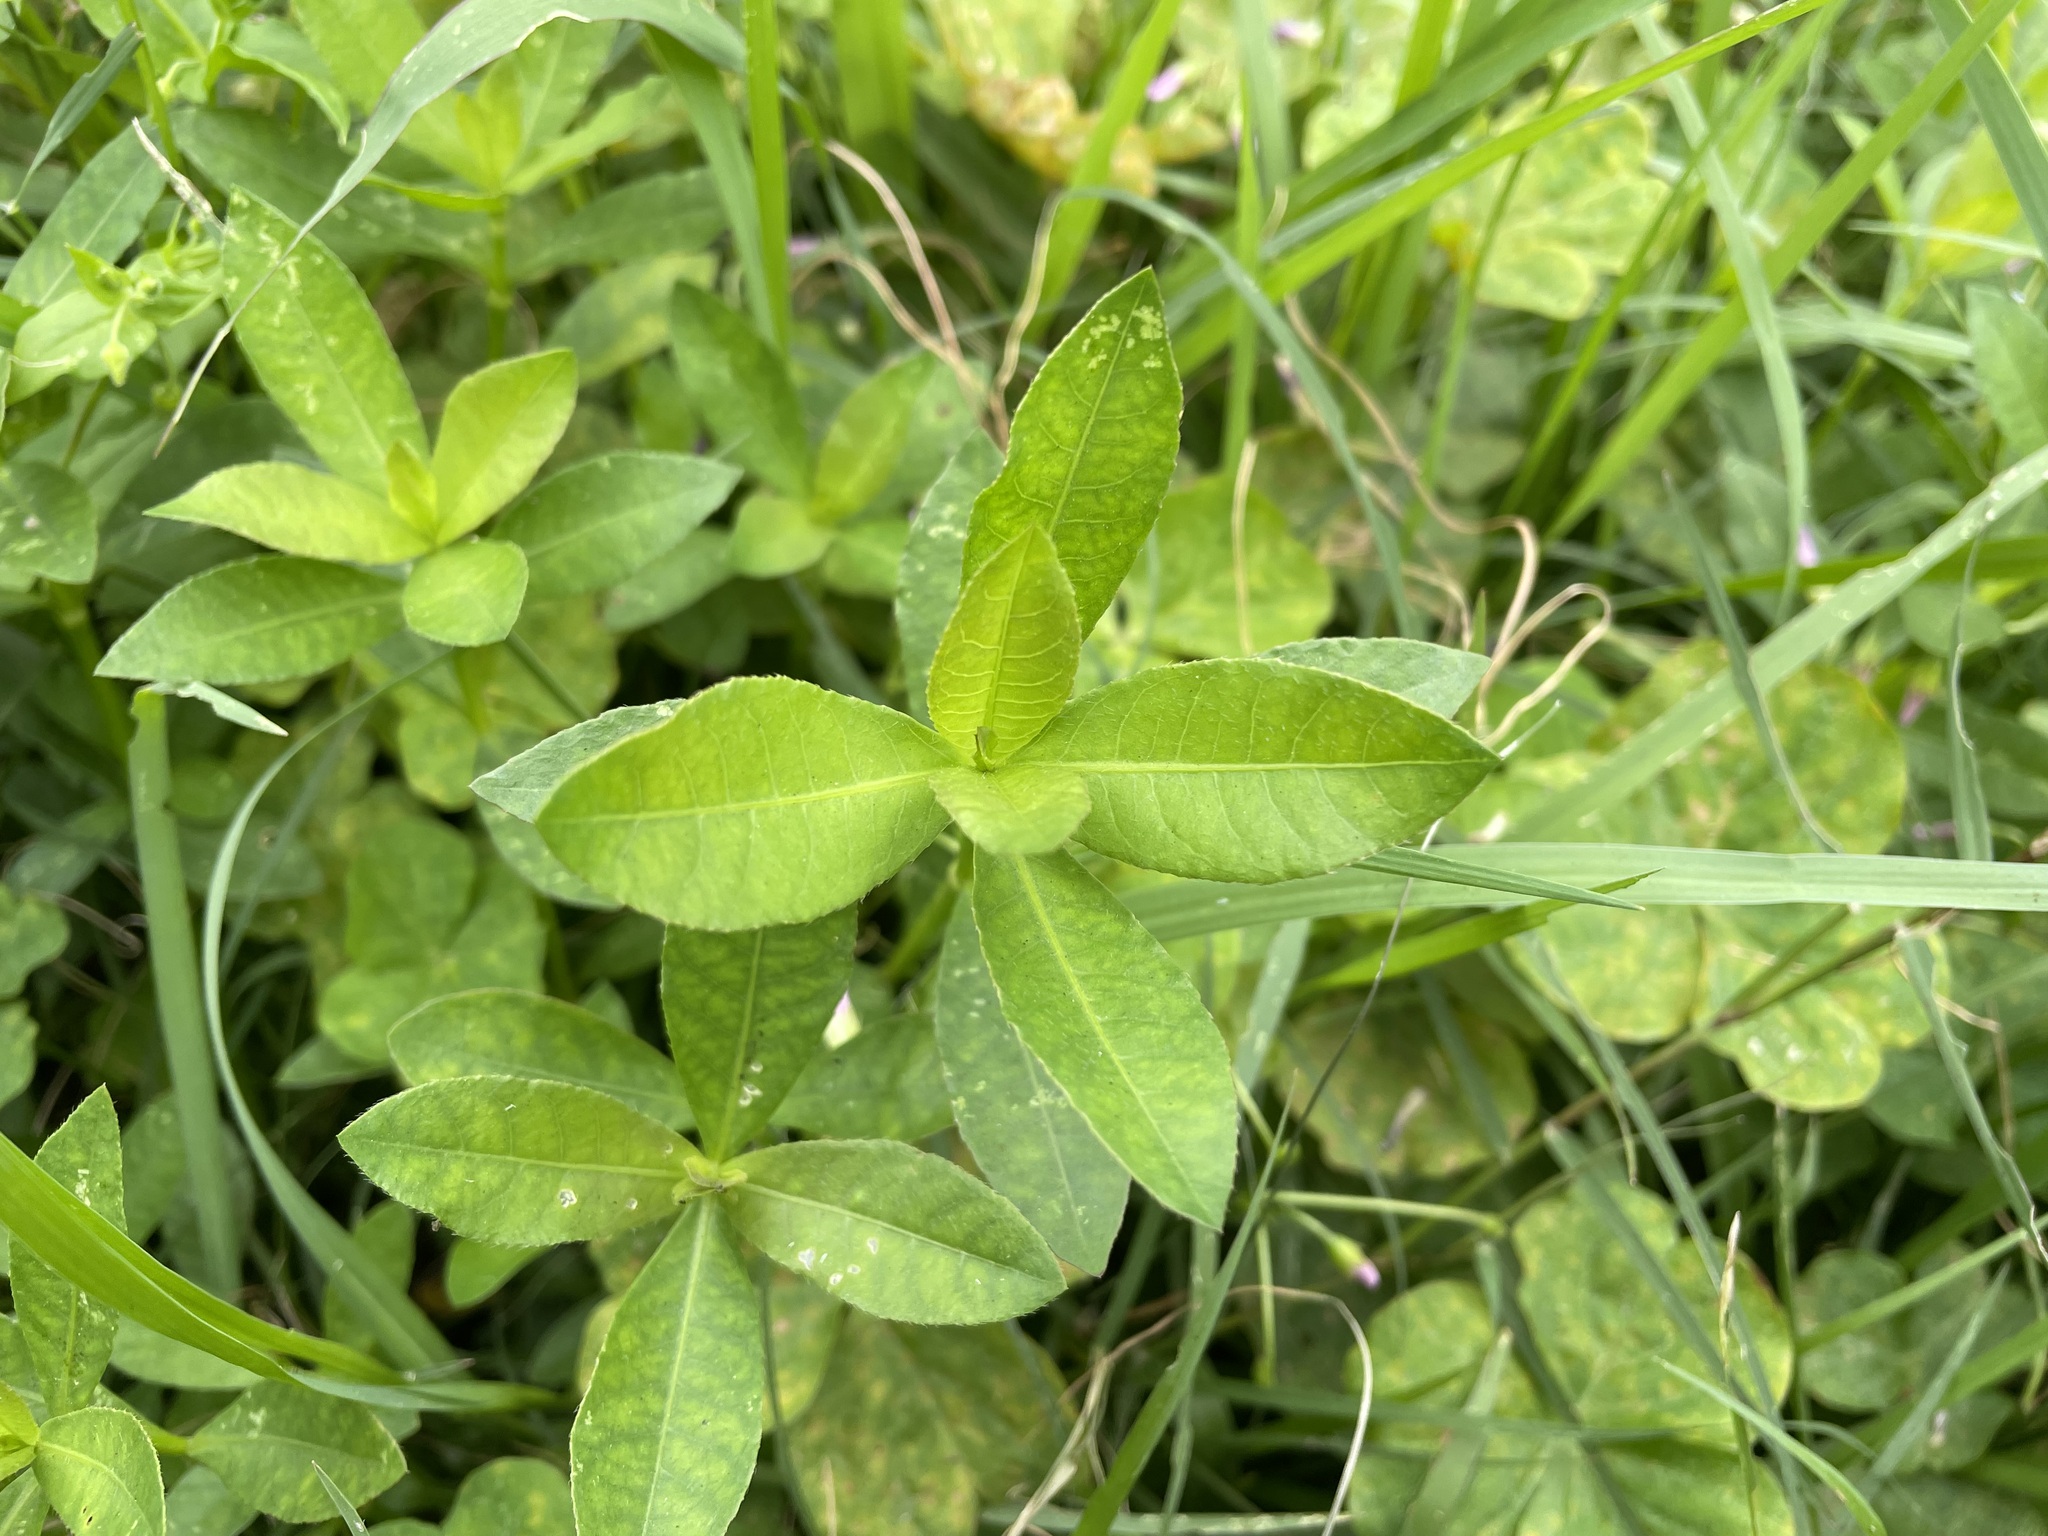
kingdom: Plantae
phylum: Tracheophyta
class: Magnoliopsida
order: Caryophyllales
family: Amaranthaceae
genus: Alternanthera
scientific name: Alternanthera philoxeroides
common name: Alligatorweed
